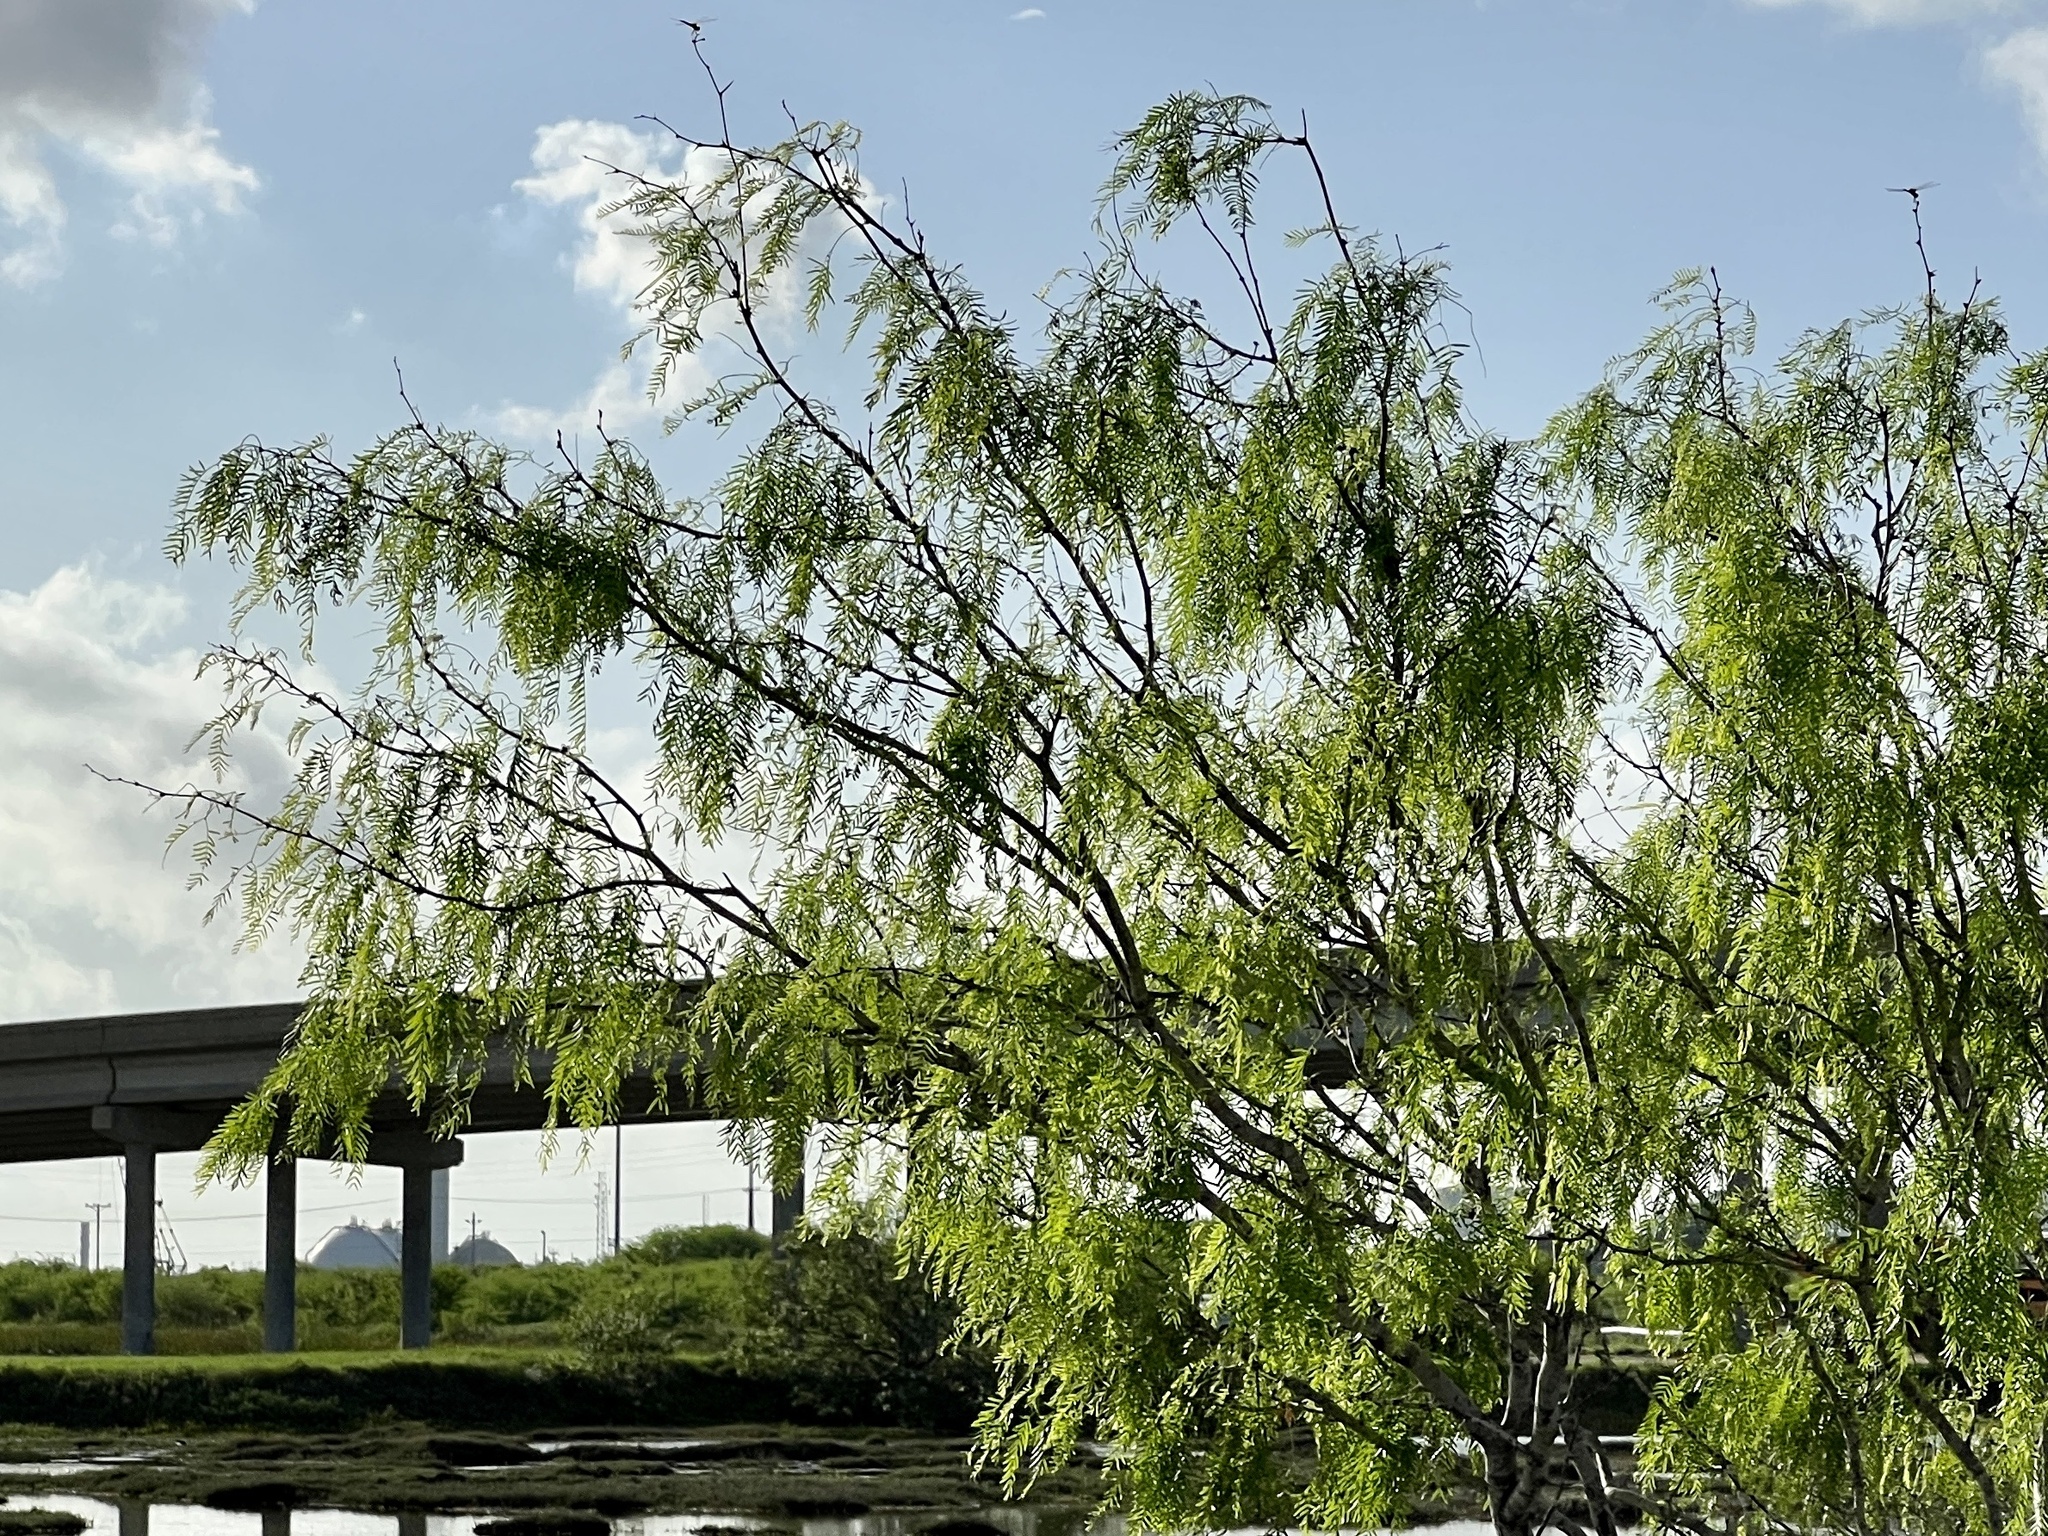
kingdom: Plantae
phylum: Tracheophyta
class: Magnoliopsida
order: Fabales
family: Fabaceae
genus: Prosopis
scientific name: Prosopis glandulosa
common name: Honey mesquite
